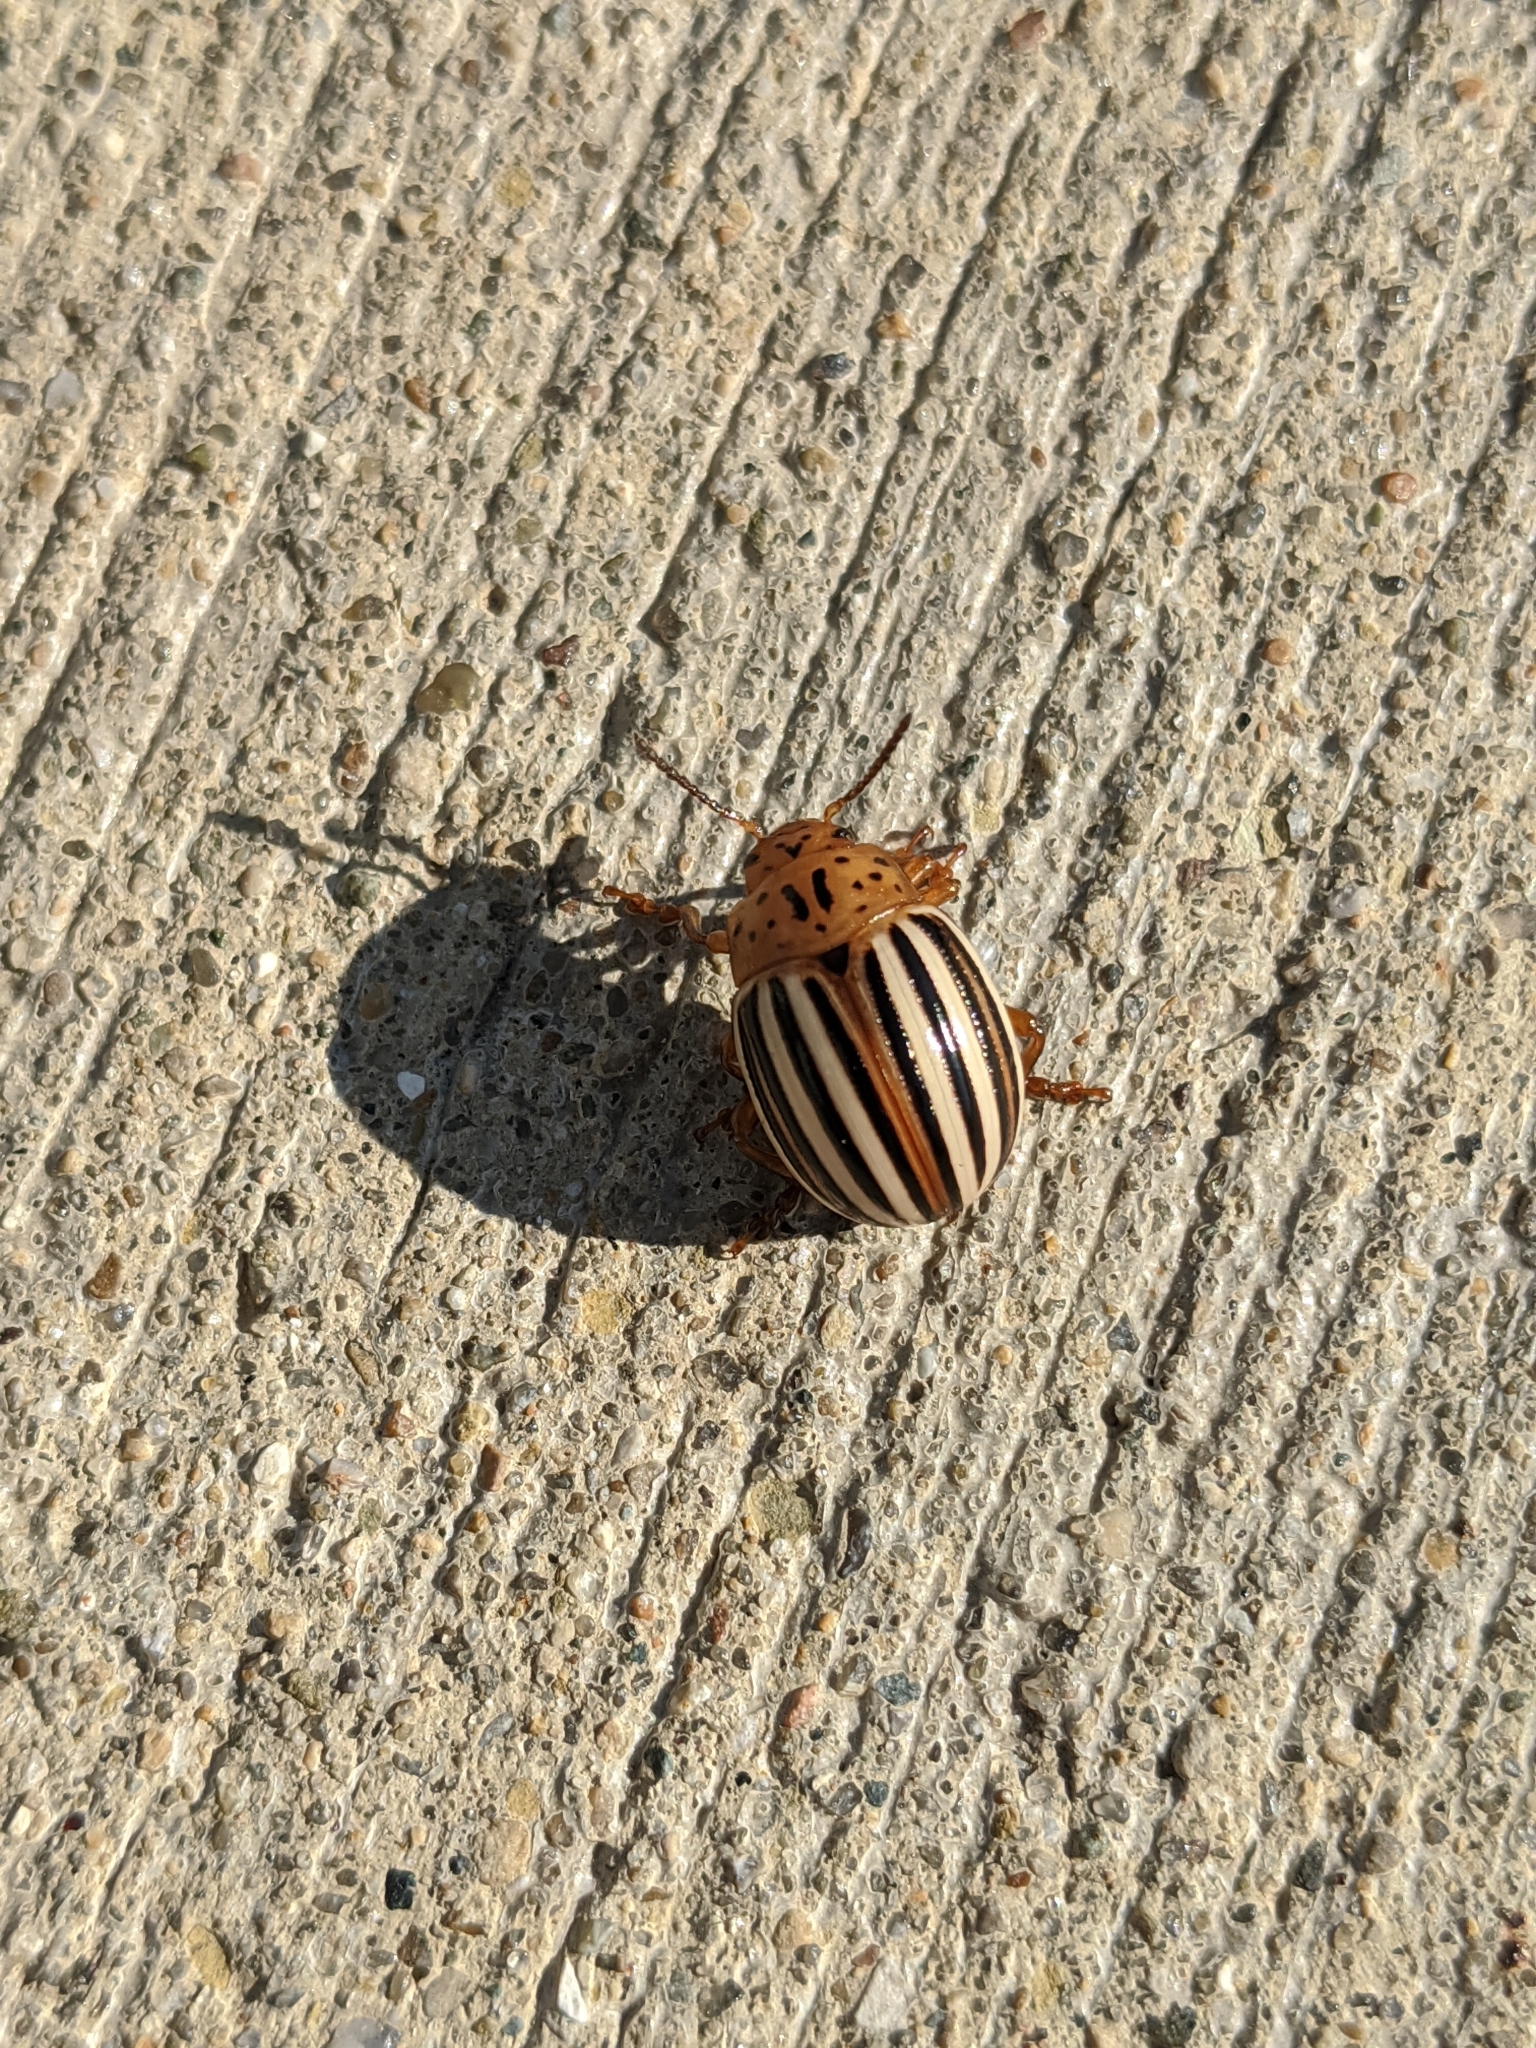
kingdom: Animalia
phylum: Arthropoda
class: Insecta
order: Coleoptera
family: Chrysomelidae
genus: Leptinotarsa
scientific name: Leptinotarsa juncta
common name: False potato beetle
